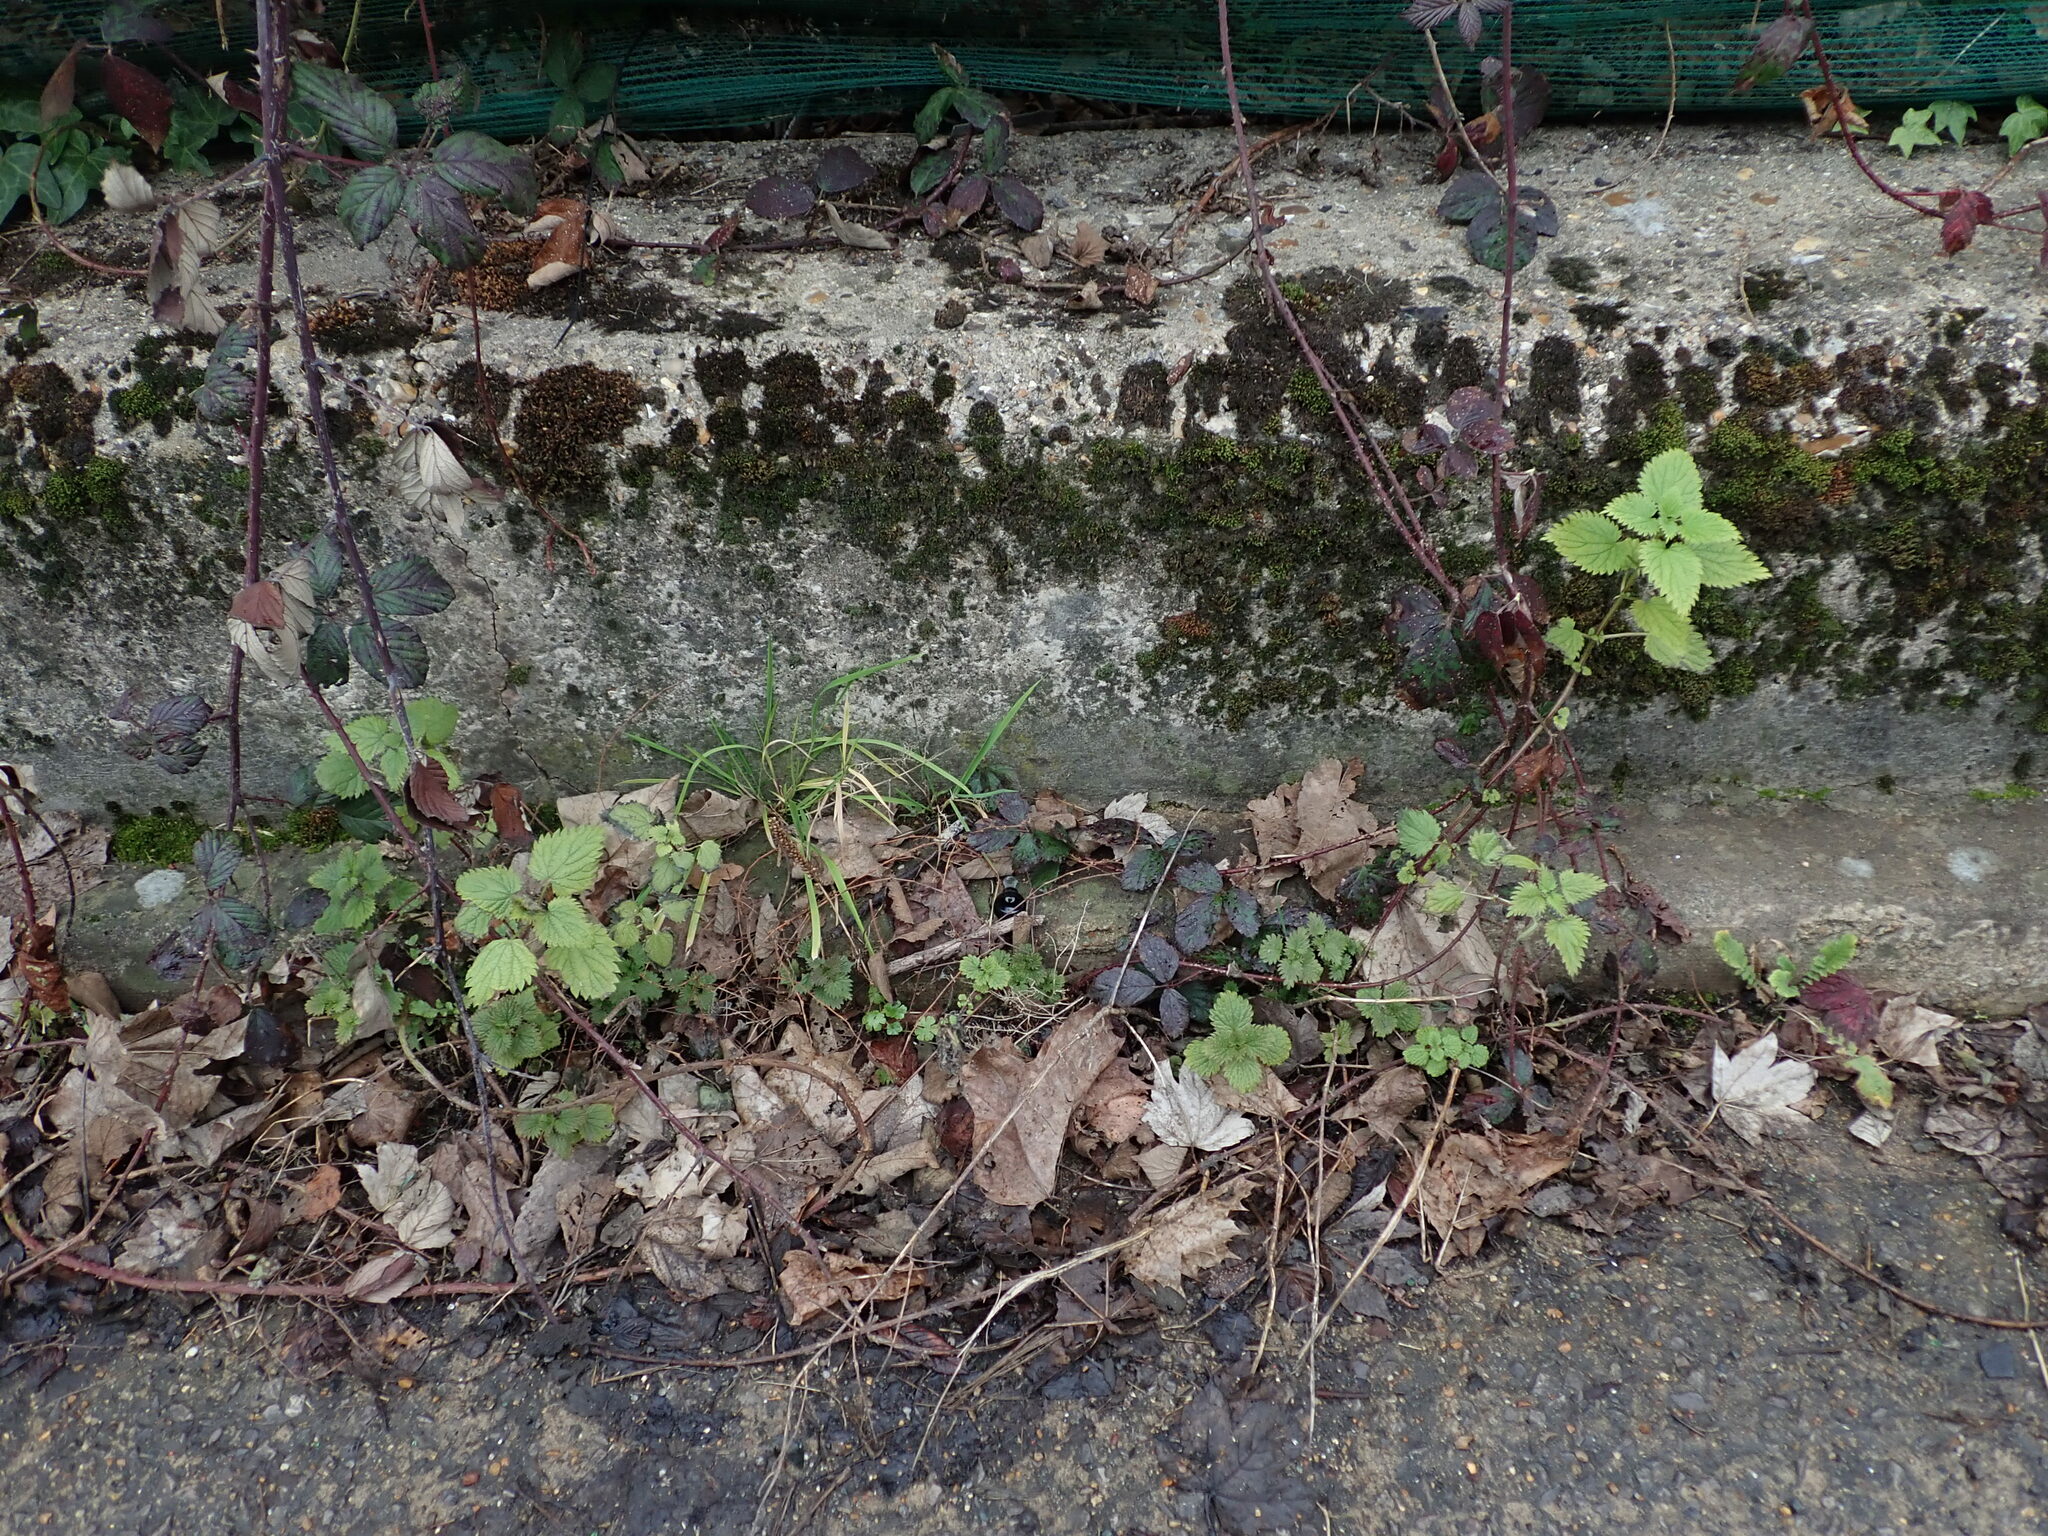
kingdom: Plantae
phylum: Tracheophyta
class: Magnoliopsida
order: Rosales
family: Urticaceae
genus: Urtica
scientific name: Urtica dioica
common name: Common nettle
